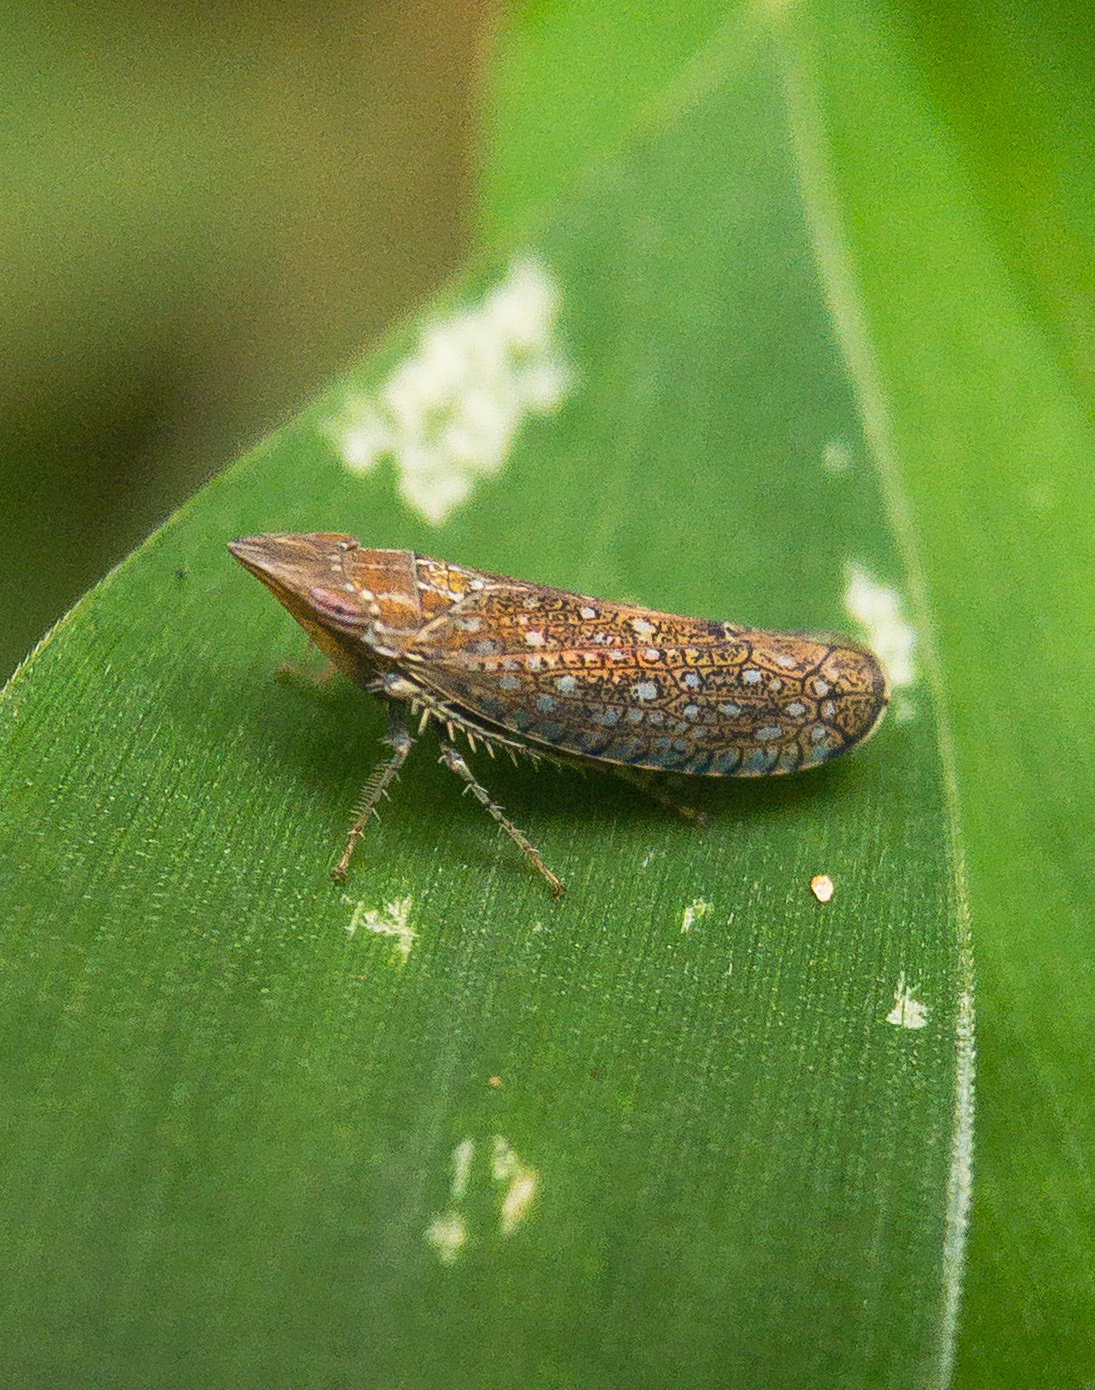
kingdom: Animalia
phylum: Arthropoda
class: Insecta
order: Hemiptera
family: Cicadellidae
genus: Scaphytopius
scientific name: Scaphytopius acutus
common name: The sharp-nosed leafhopper
